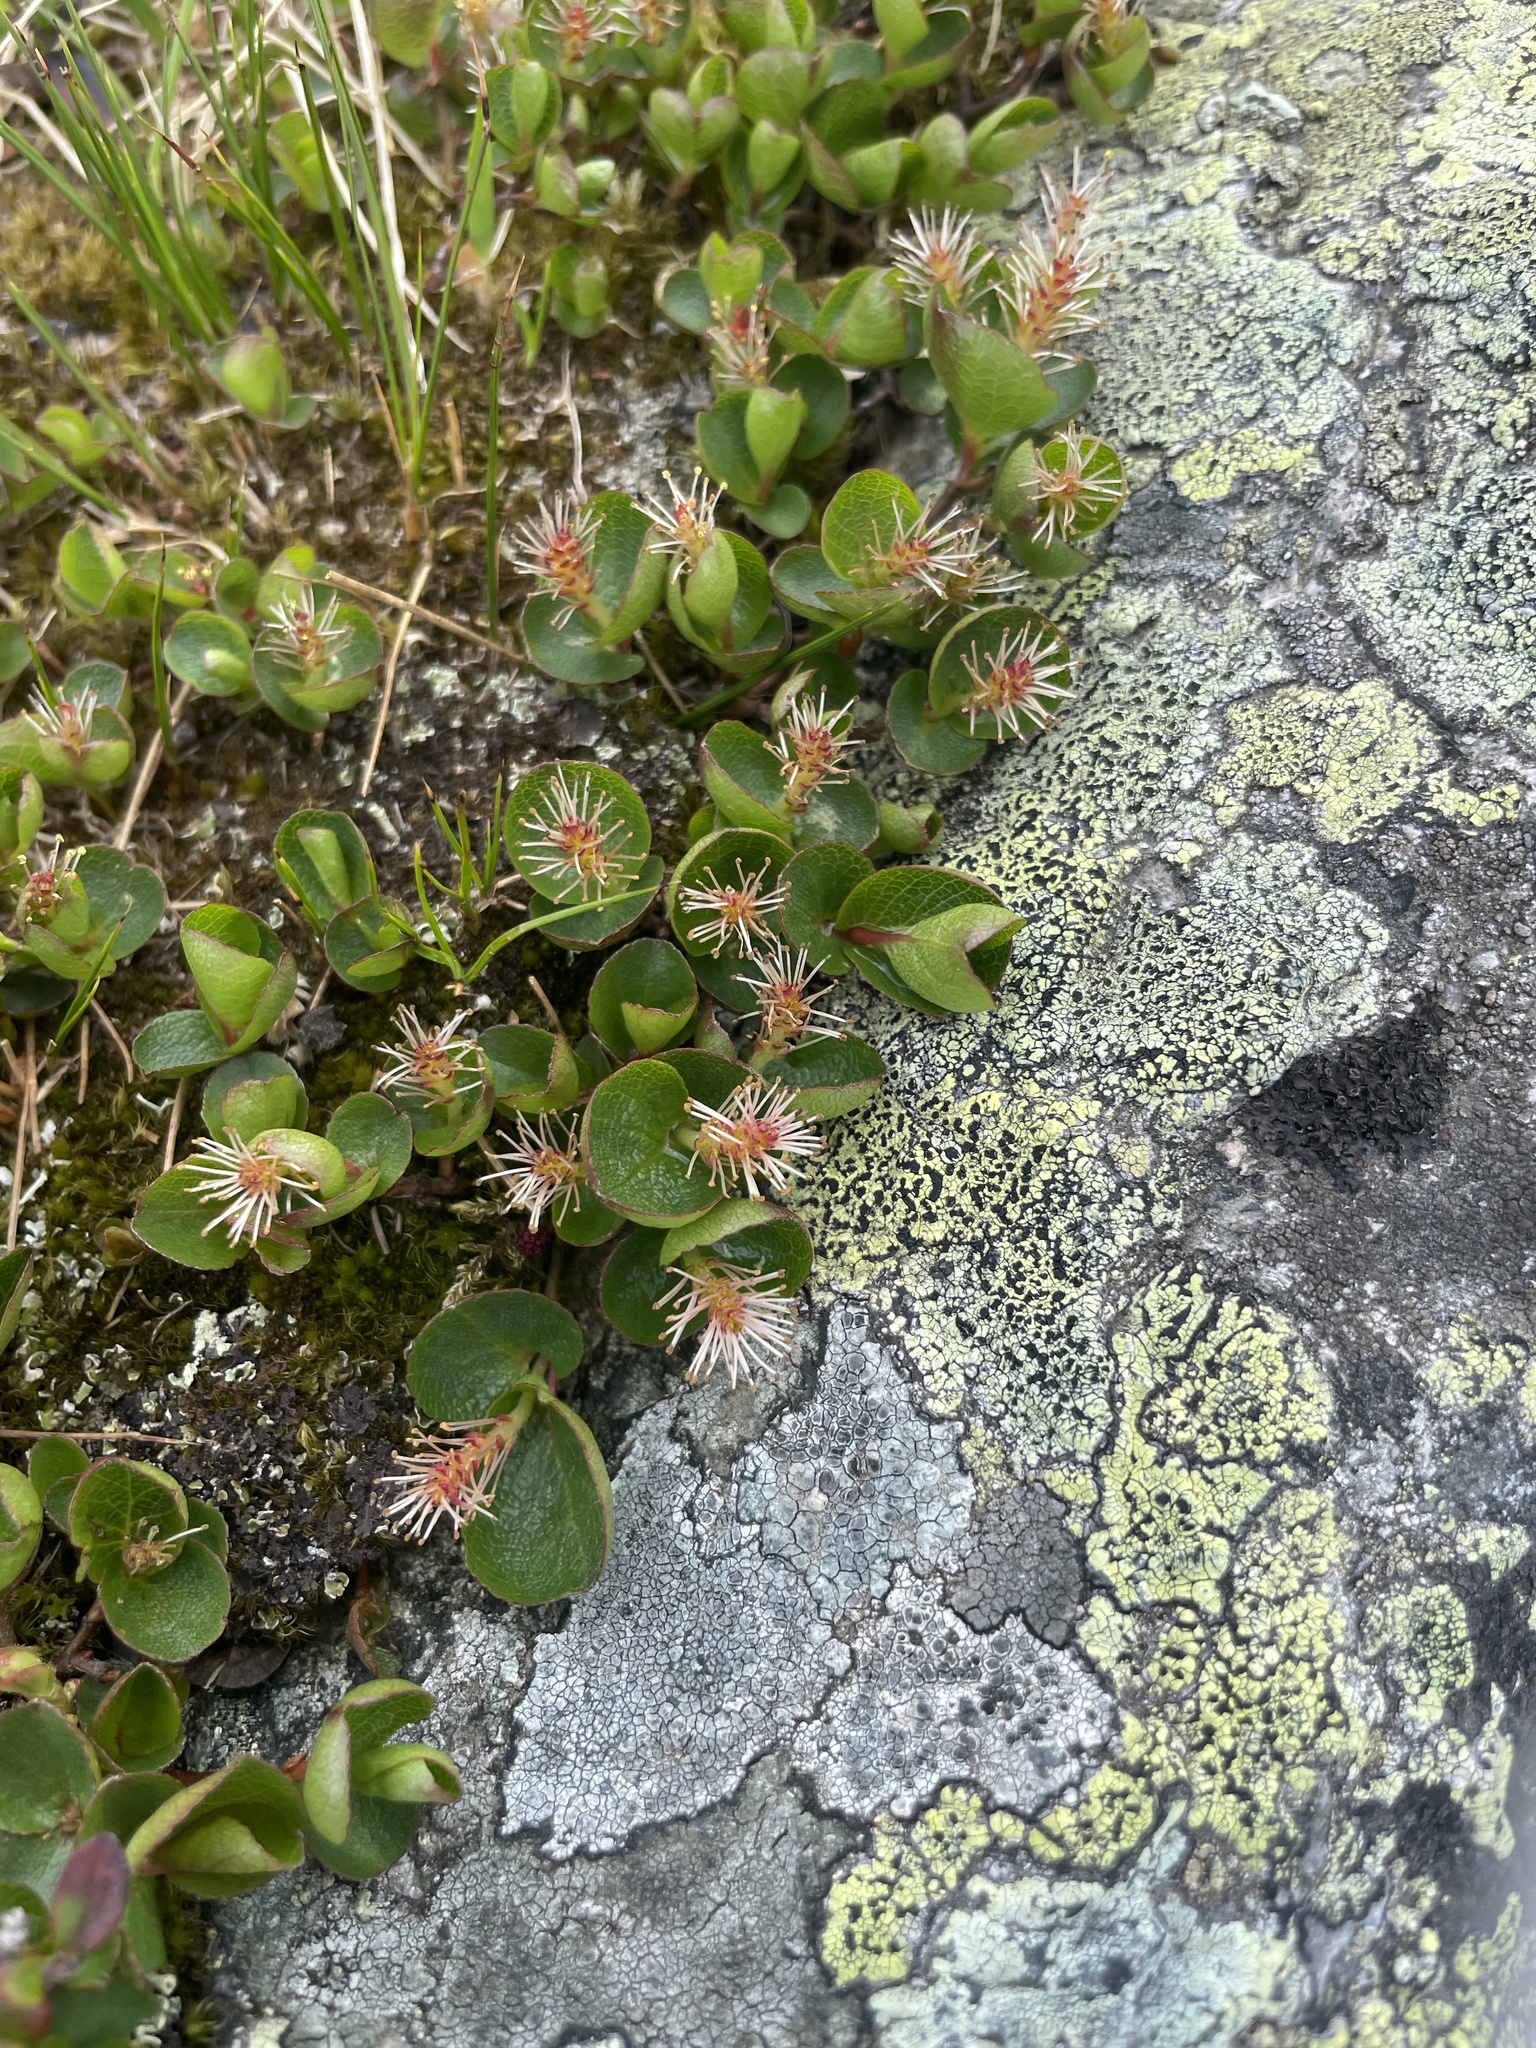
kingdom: Plantae
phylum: Tracheophyta
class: Magnoliopsida
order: Malpighiales
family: Salicaceae
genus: Salix
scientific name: Salix herbacea
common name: Dwarf willow
